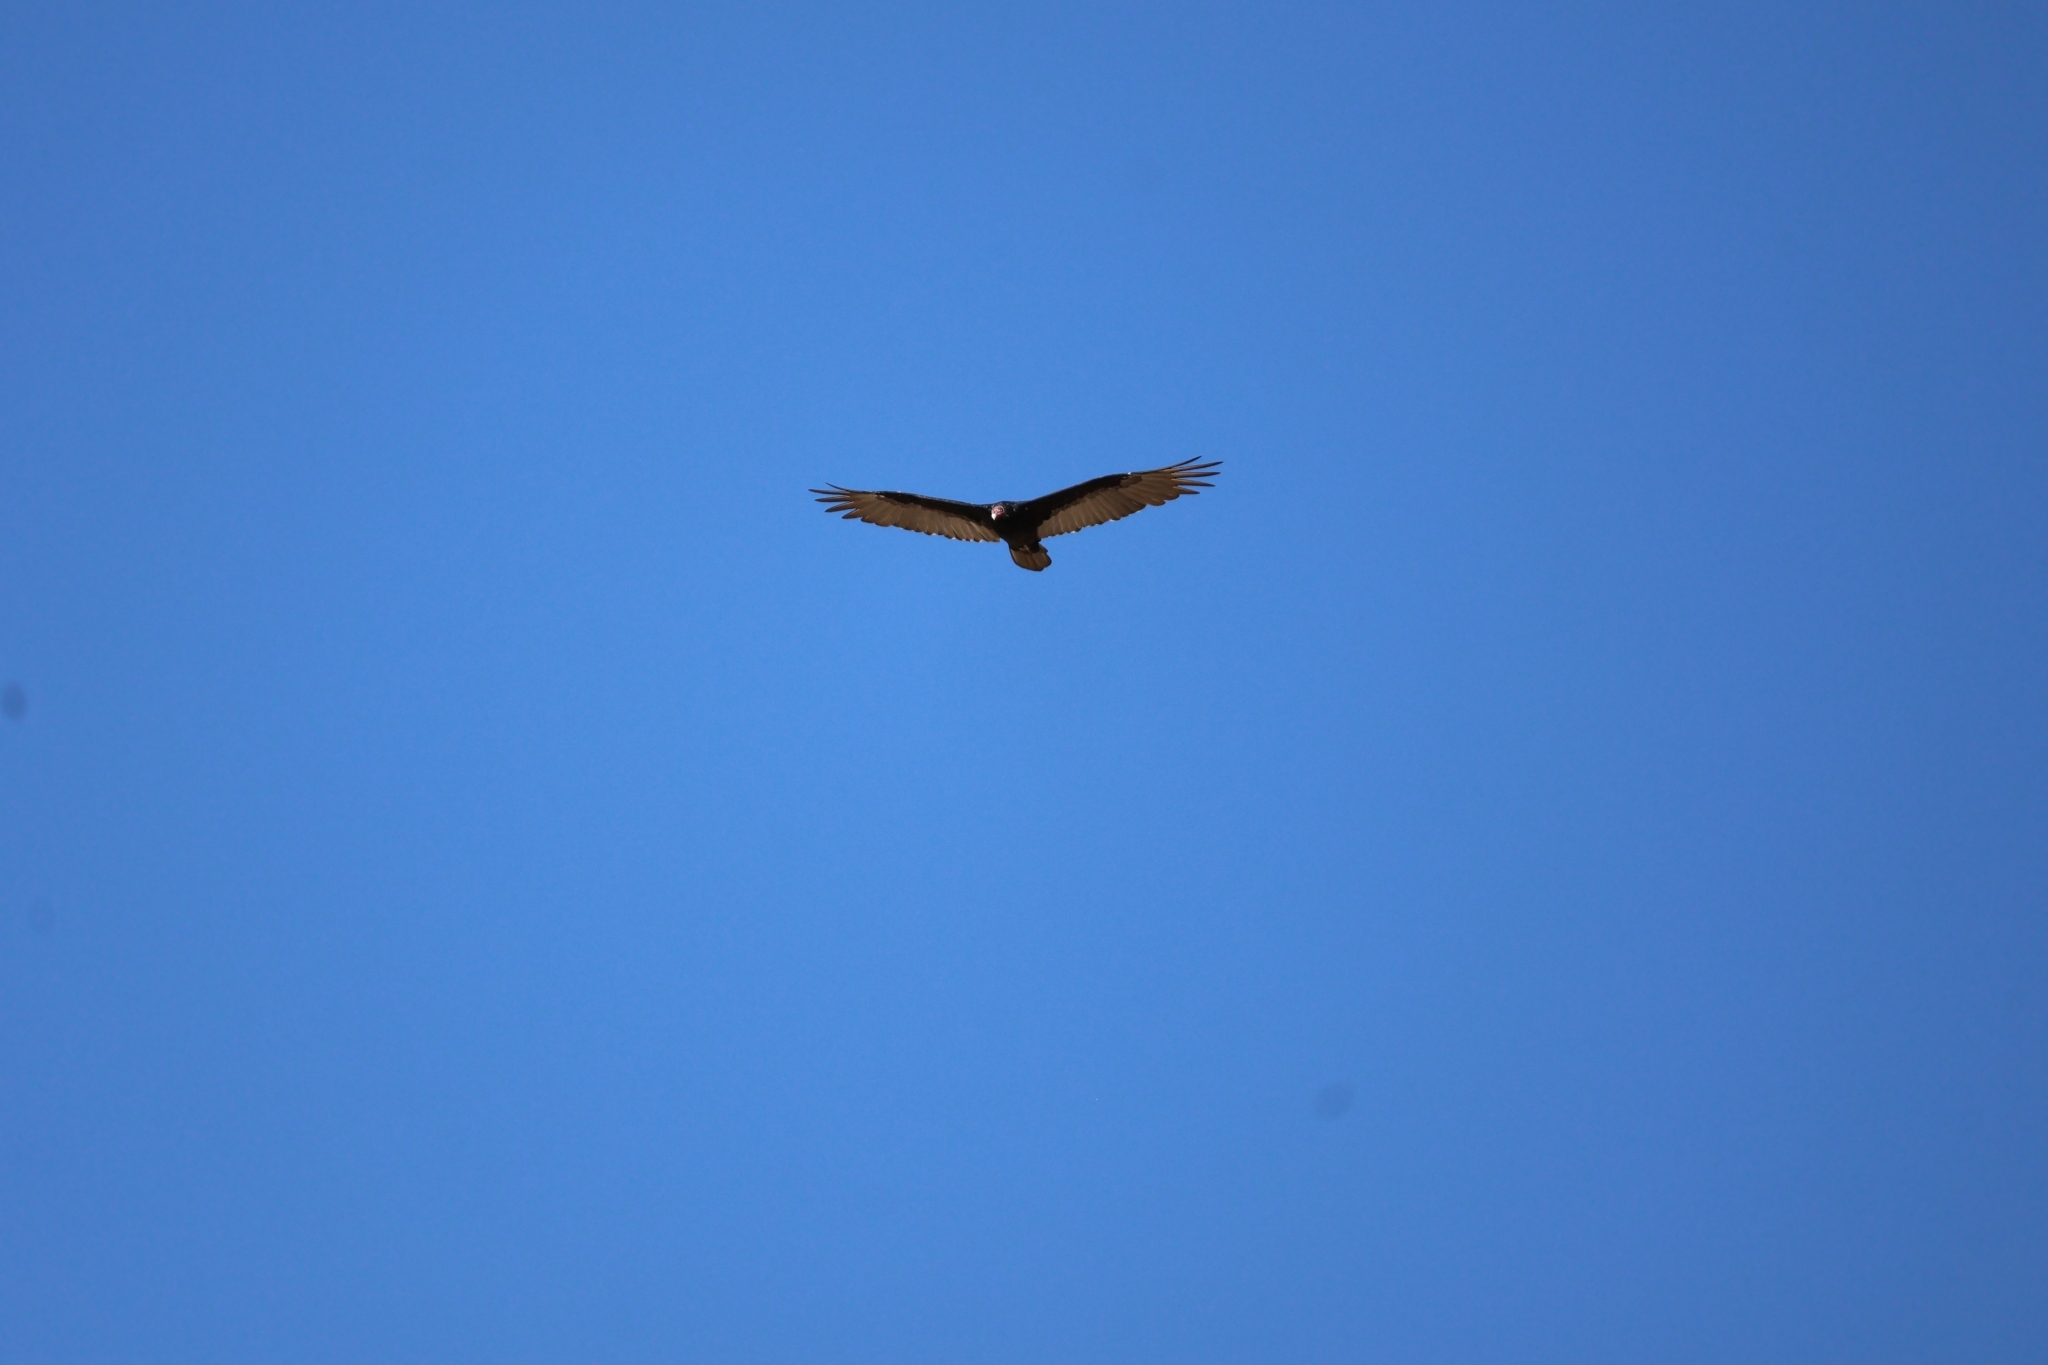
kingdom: Animalia
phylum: Chordata
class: Aves
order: Accipitriformes
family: Cathartidae
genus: Cathartes
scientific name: Cathartes aura
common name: Turkey vulture
